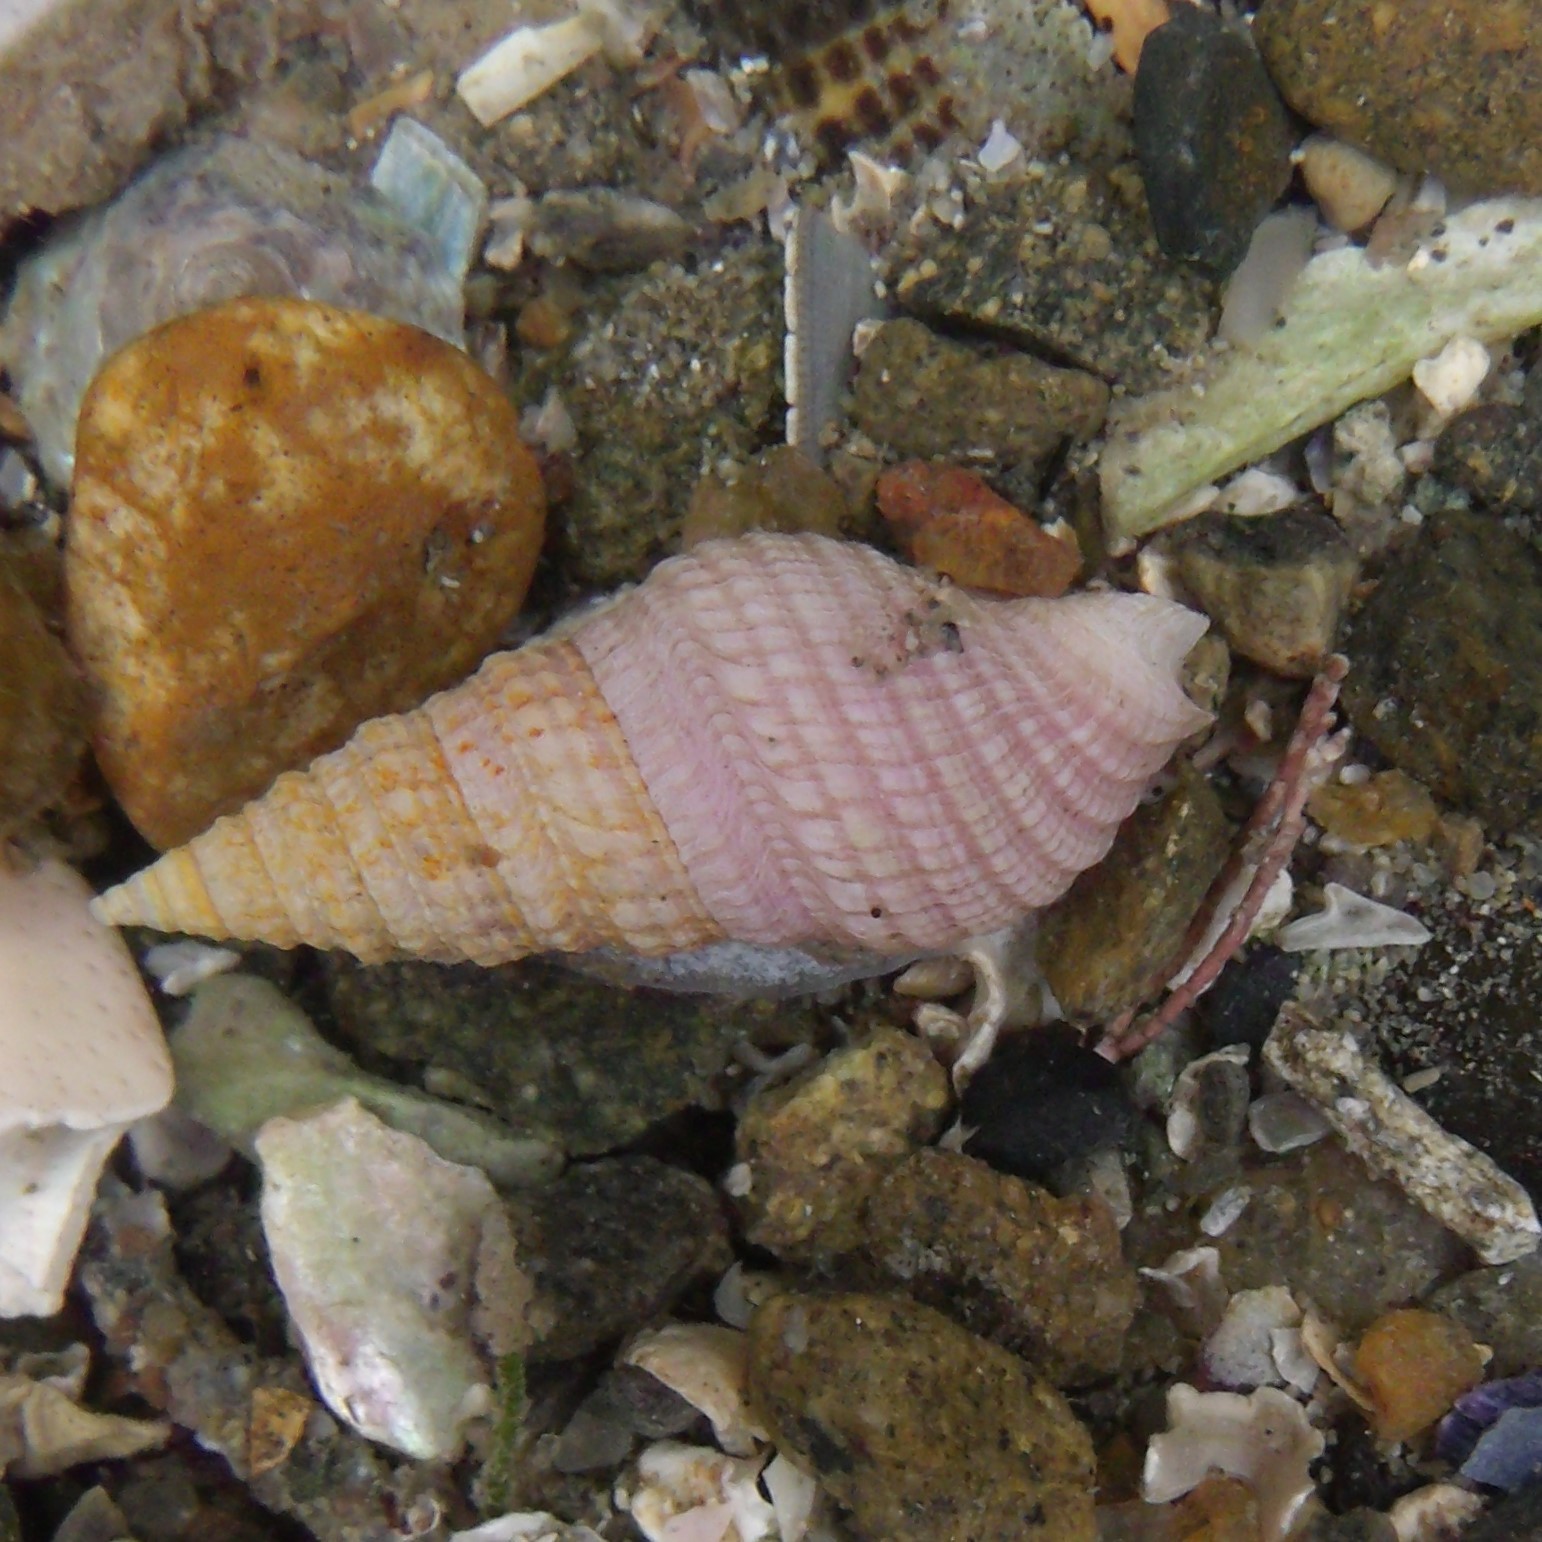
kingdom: Animalia
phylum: Mollusca
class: Gastropoda
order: Neogastropoda
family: Borsoniidae
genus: Phenatoma
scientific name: Phenatoma roseum
